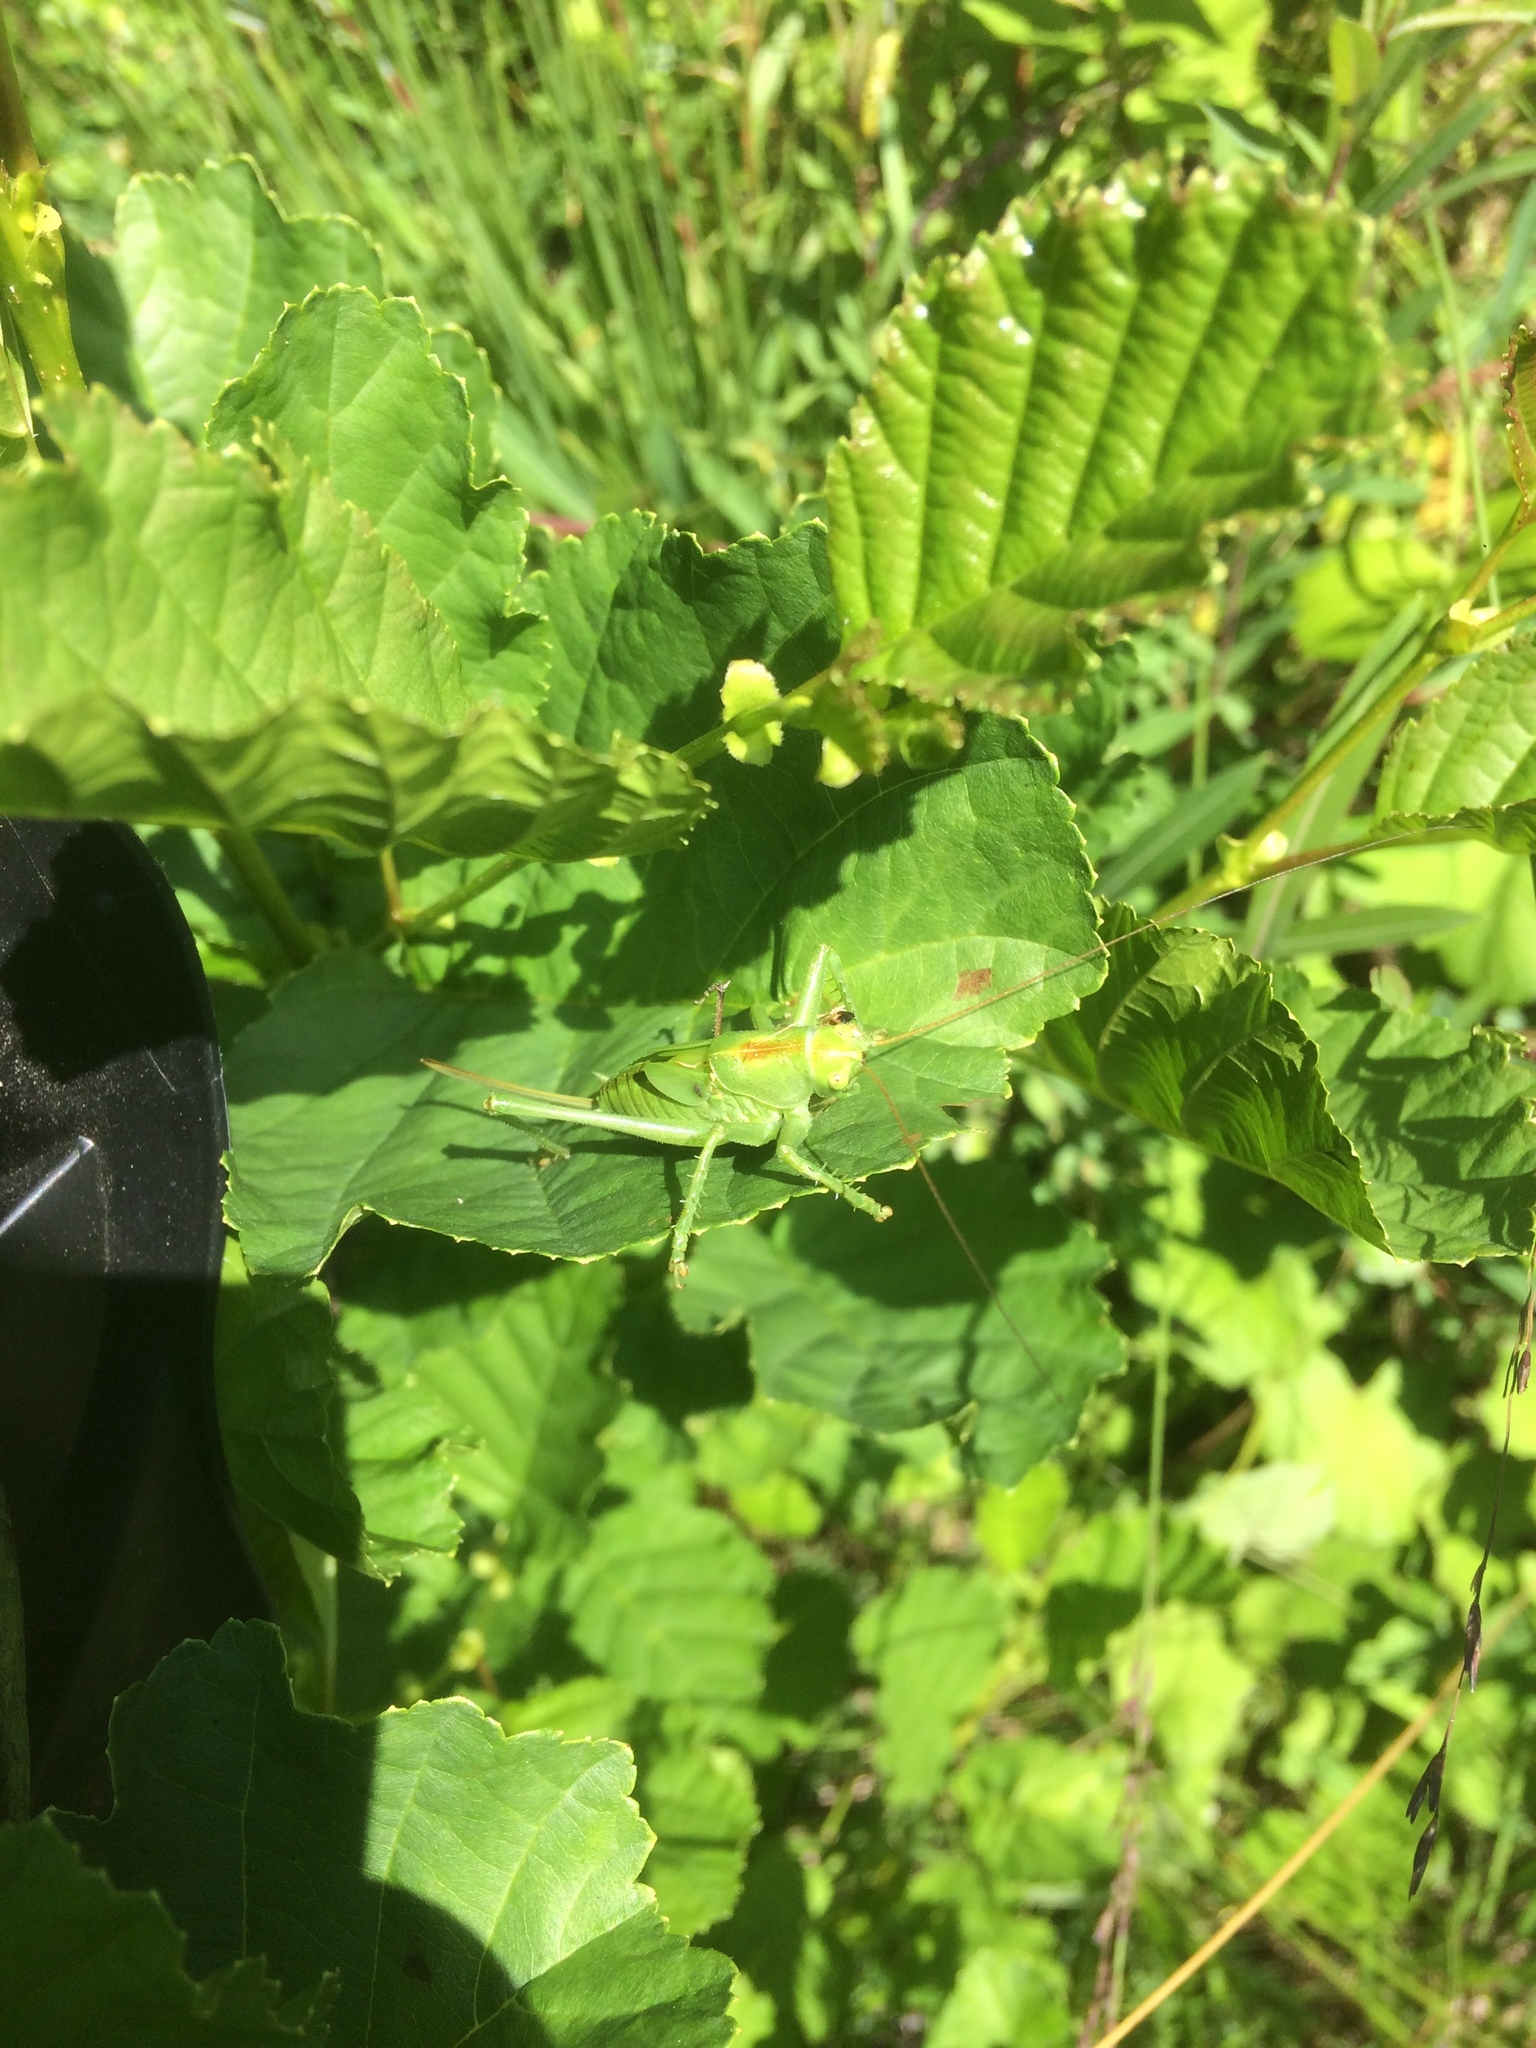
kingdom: Animalia
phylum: Arthropoda
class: Insecta
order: Orthoptera
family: Tettigoniidae
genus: Tettigonia
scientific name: Tettigonia cantans
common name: Upland green bush-cricket
